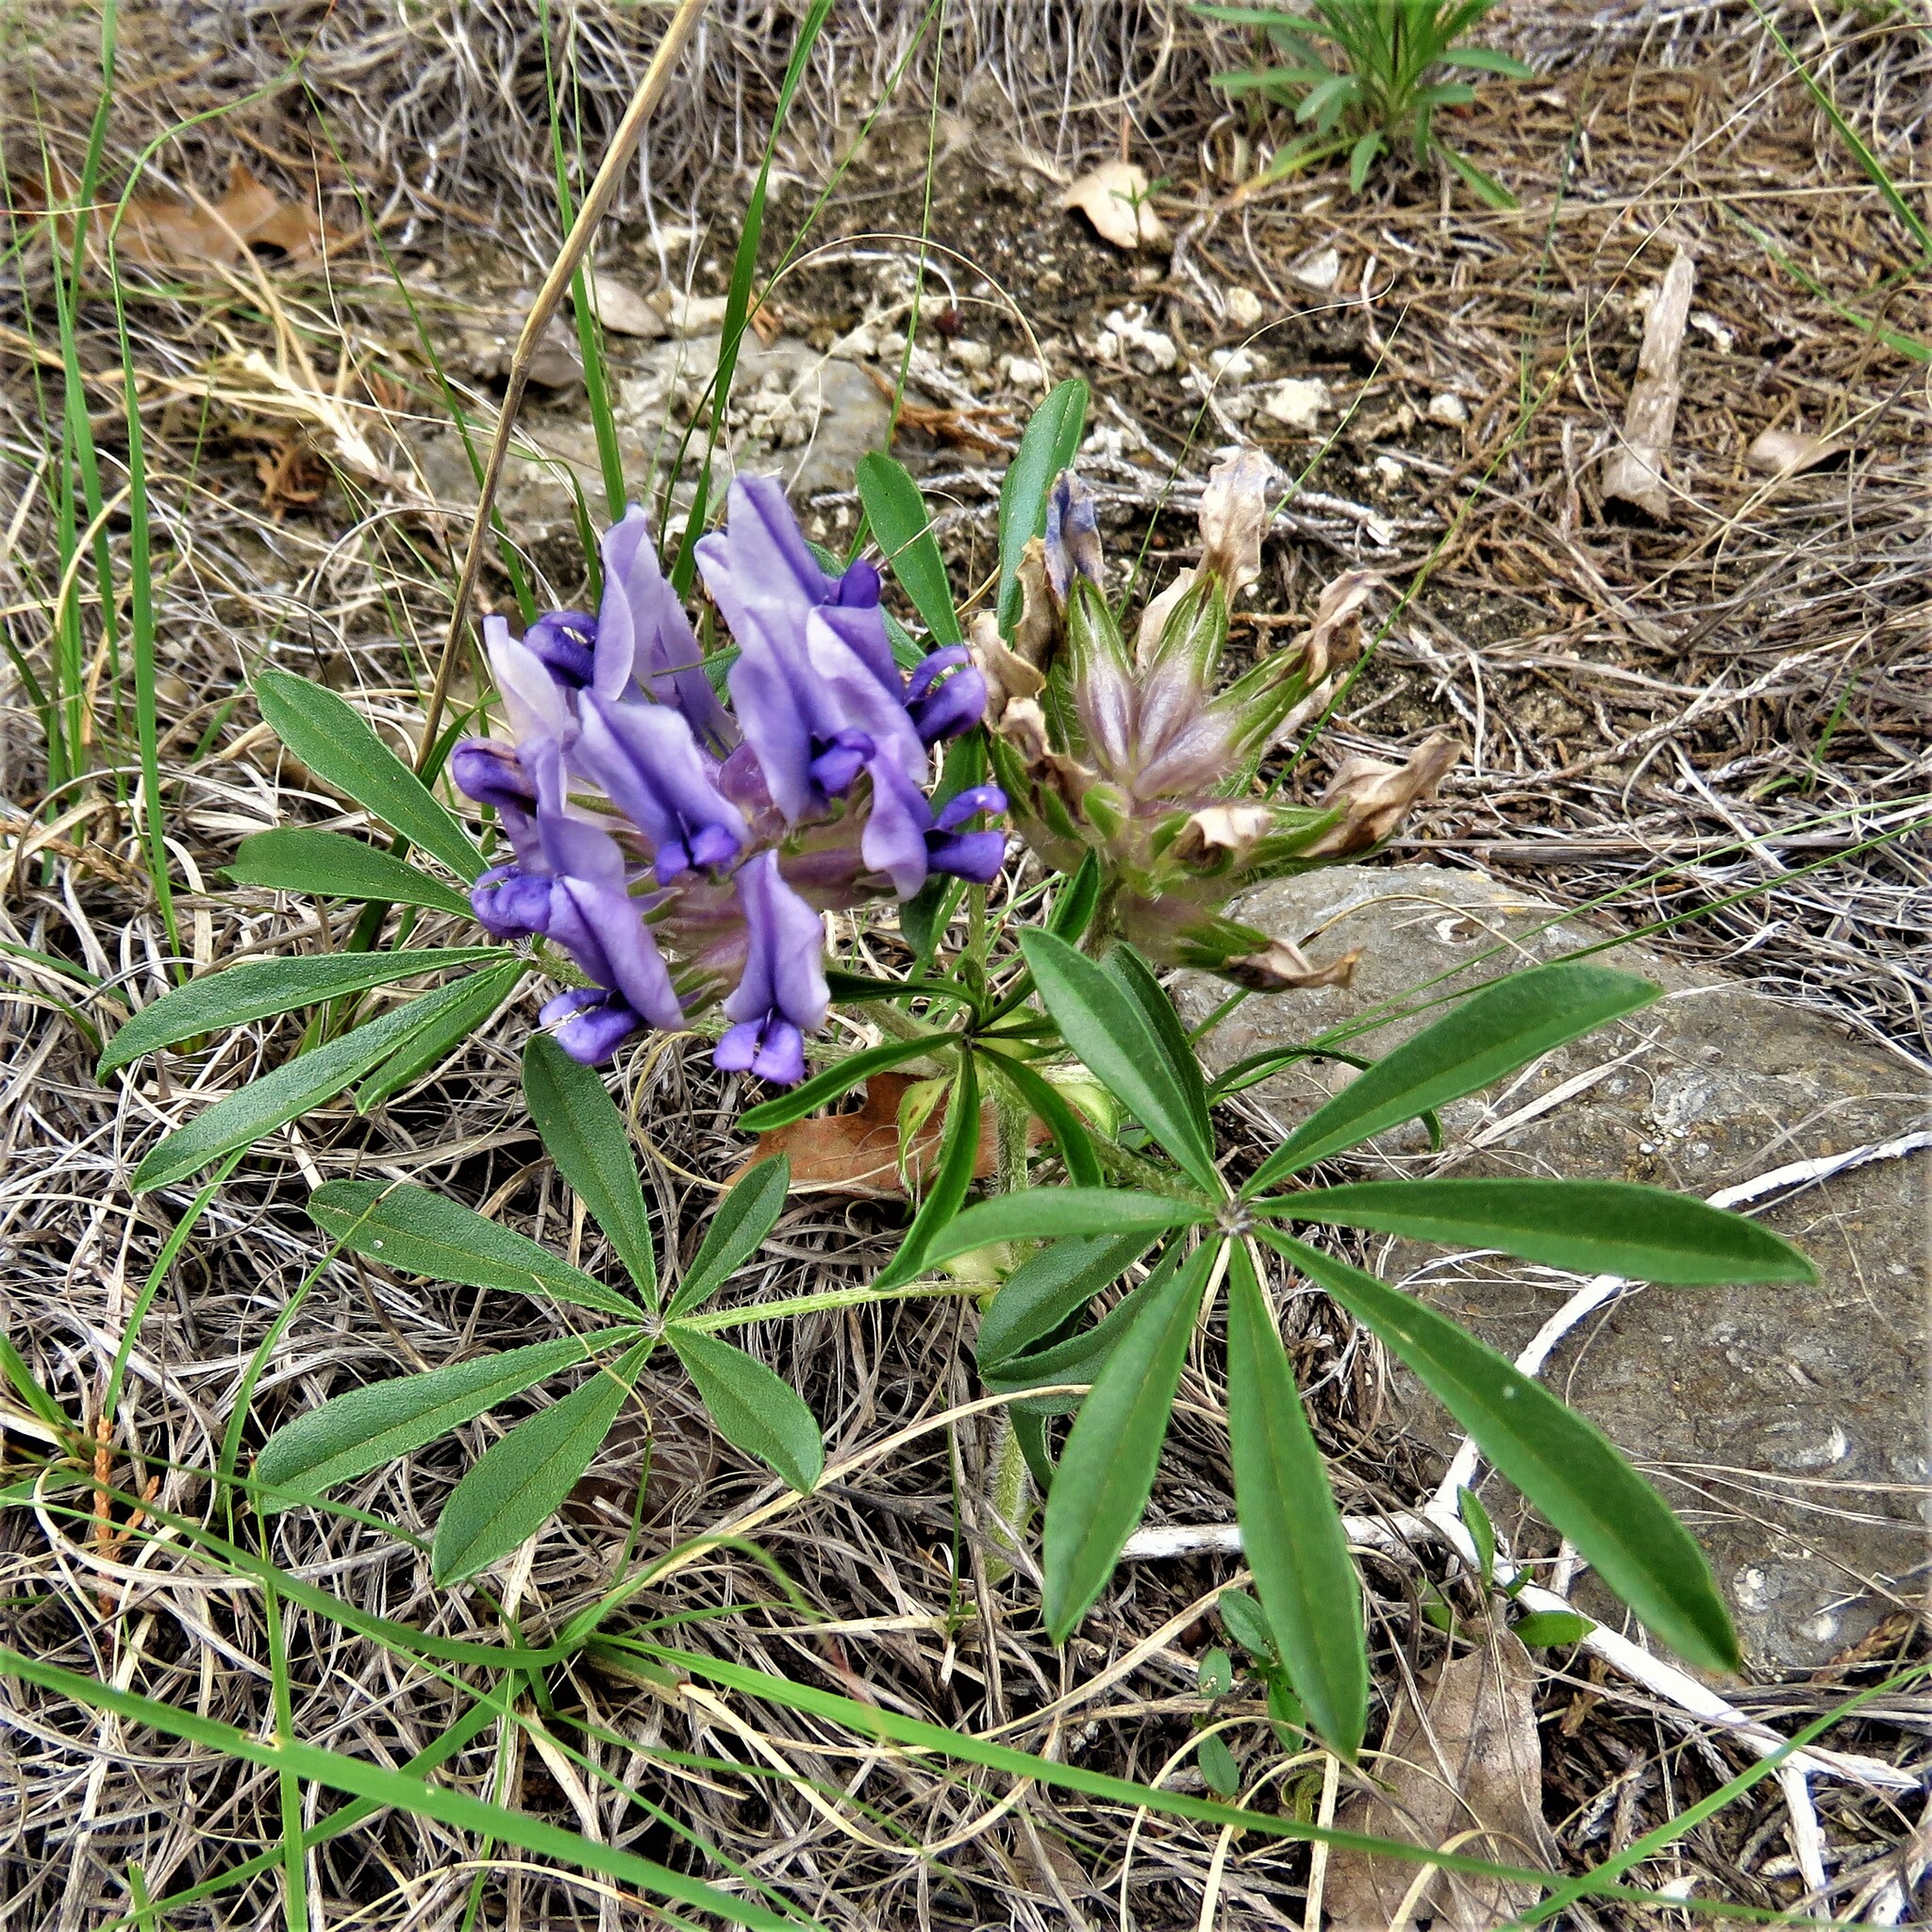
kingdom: Plantae
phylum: Tracheophyta
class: Magnoliopsida
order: Fabales
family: Fabaceae
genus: Pediomelum
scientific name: Pediomelum latestipulatum
